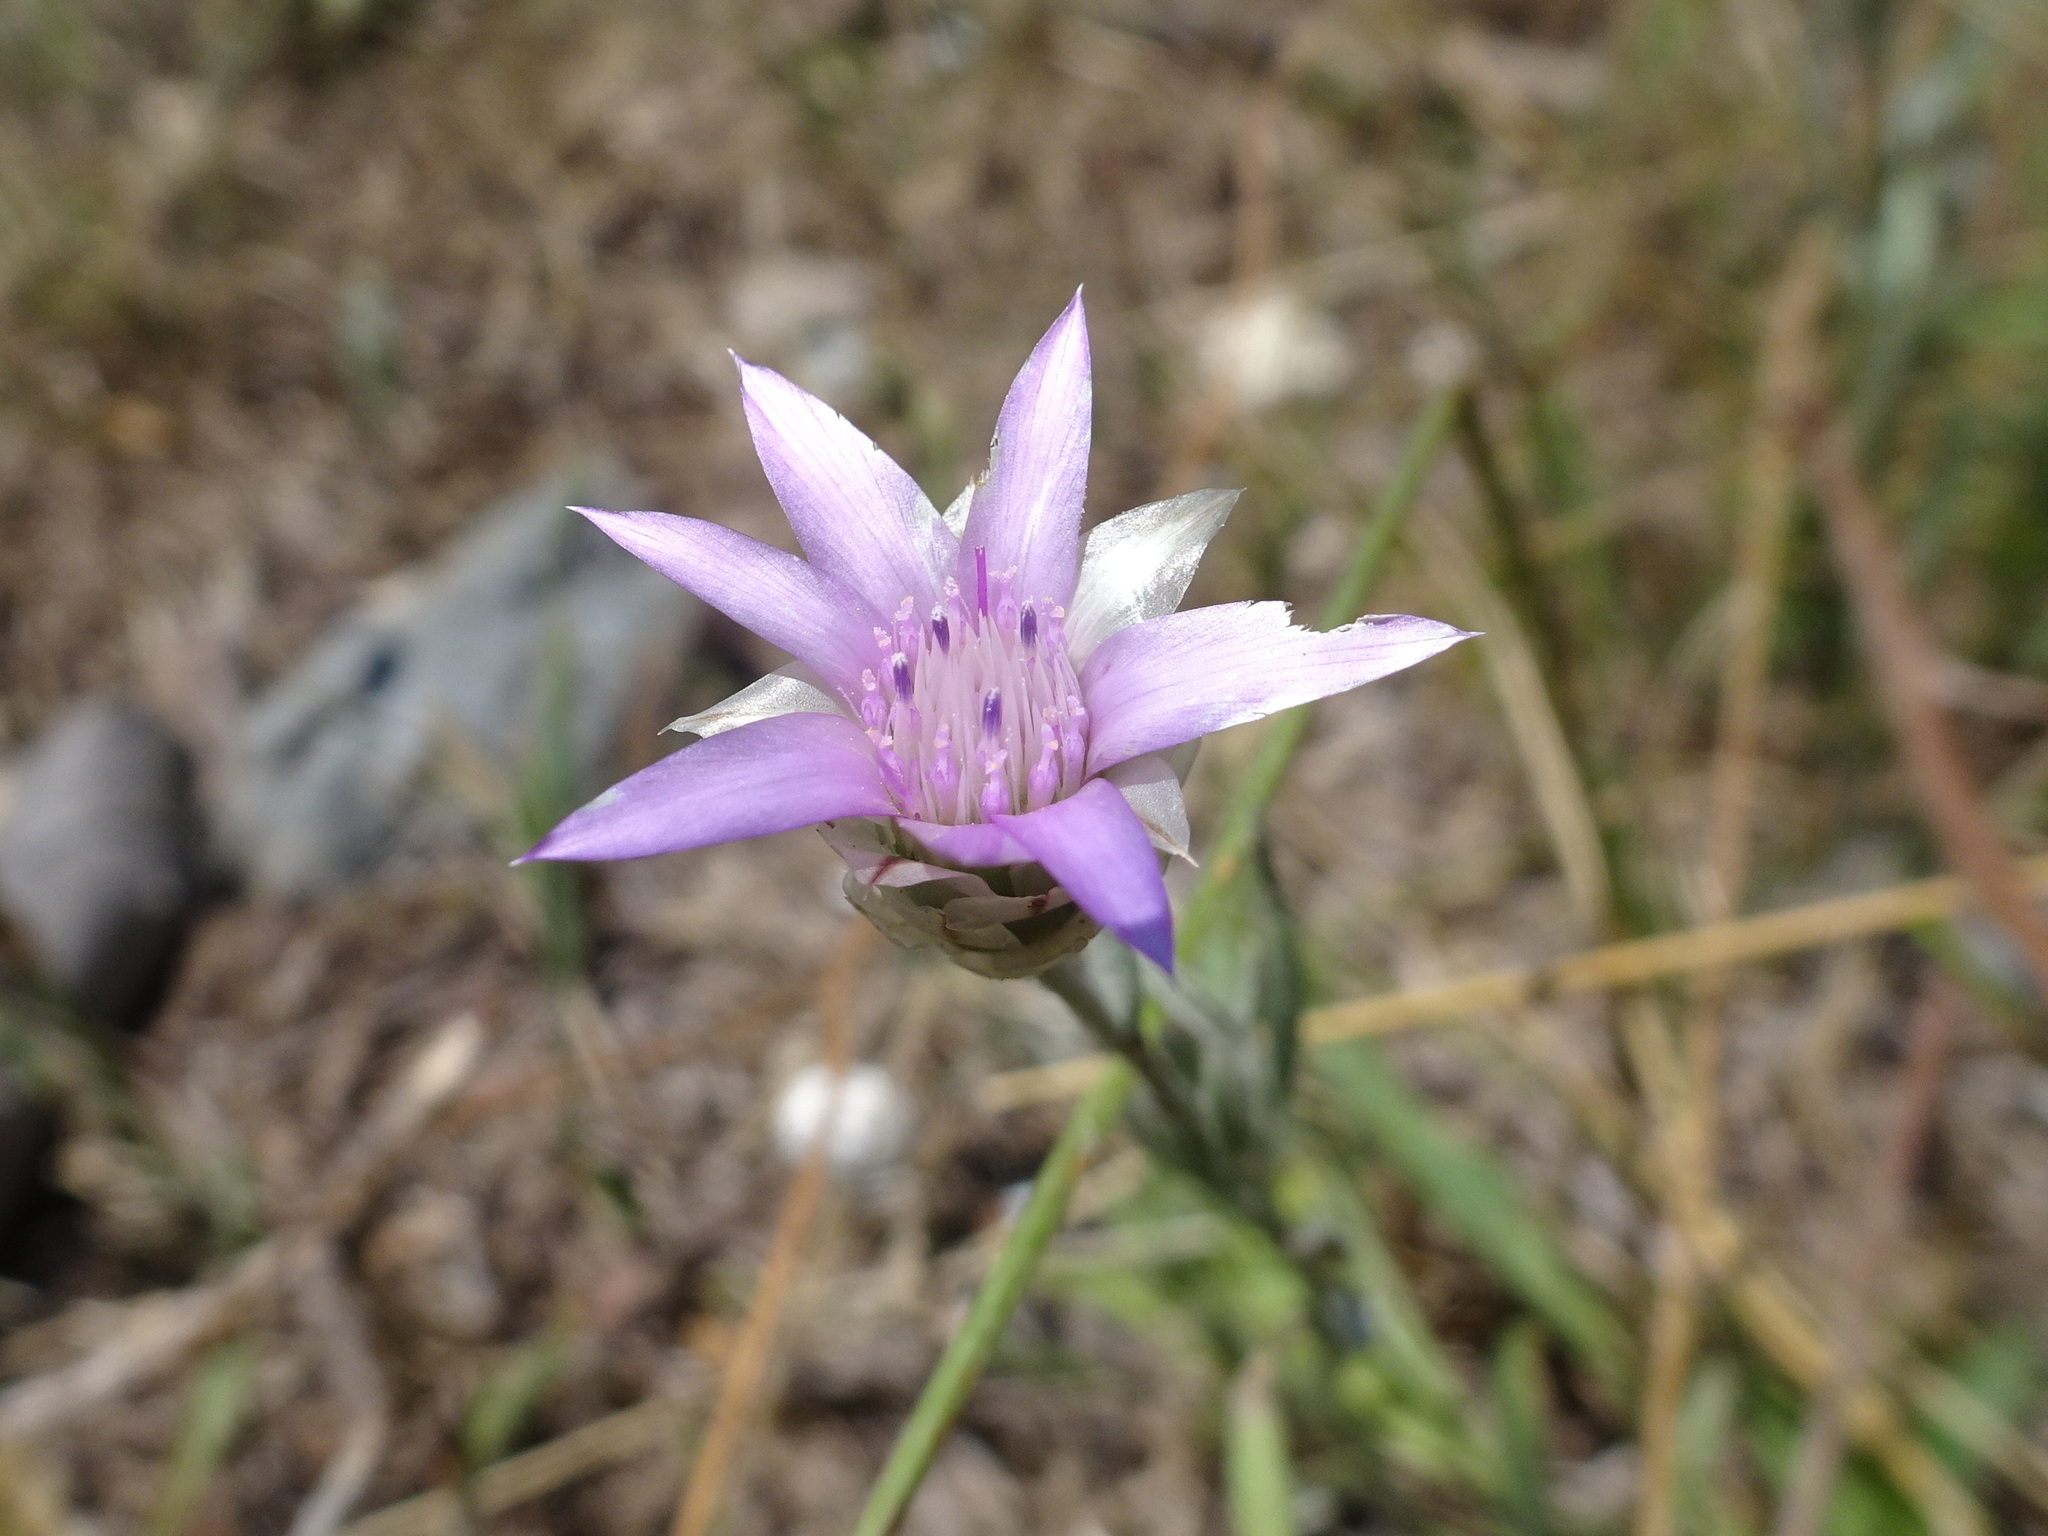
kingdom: Plantae
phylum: Tracheophyta
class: Magnoliopsida
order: Asterales
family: Asteraceae
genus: Xeranthemum
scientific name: Xeranthemum inapertum
